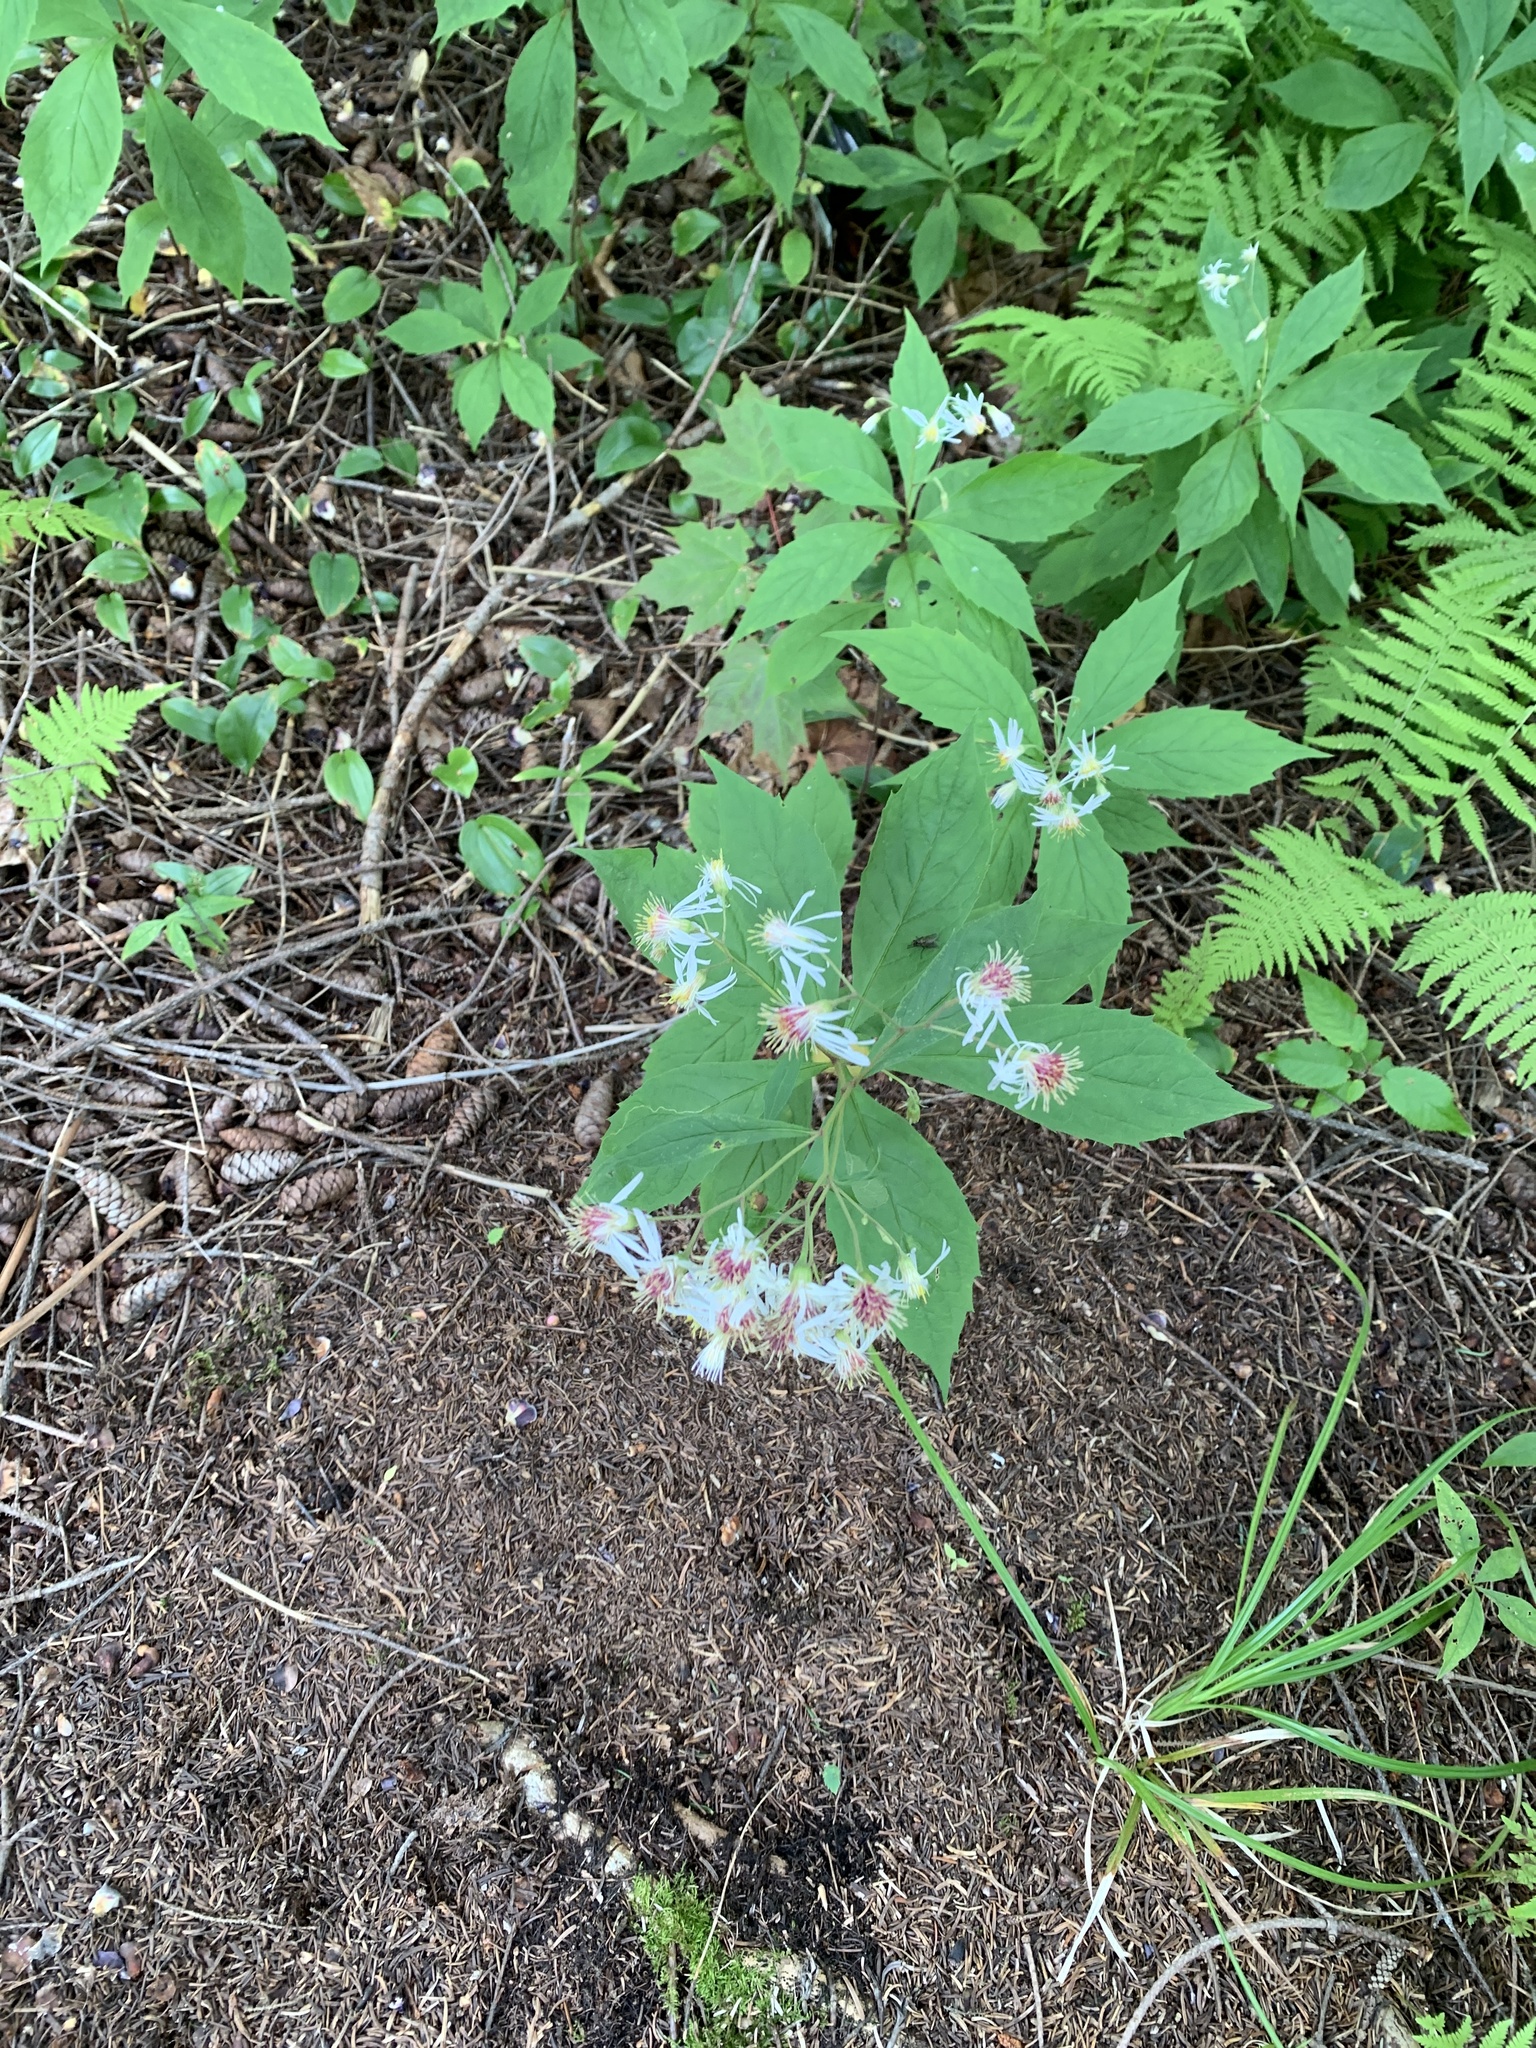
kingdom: Plantae
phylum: Tracheophyta
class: Magnoliopsida
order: Asterales
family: Asteraceae
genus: Oclemena
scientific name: Oclemena acuminata
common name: Mountain aster
